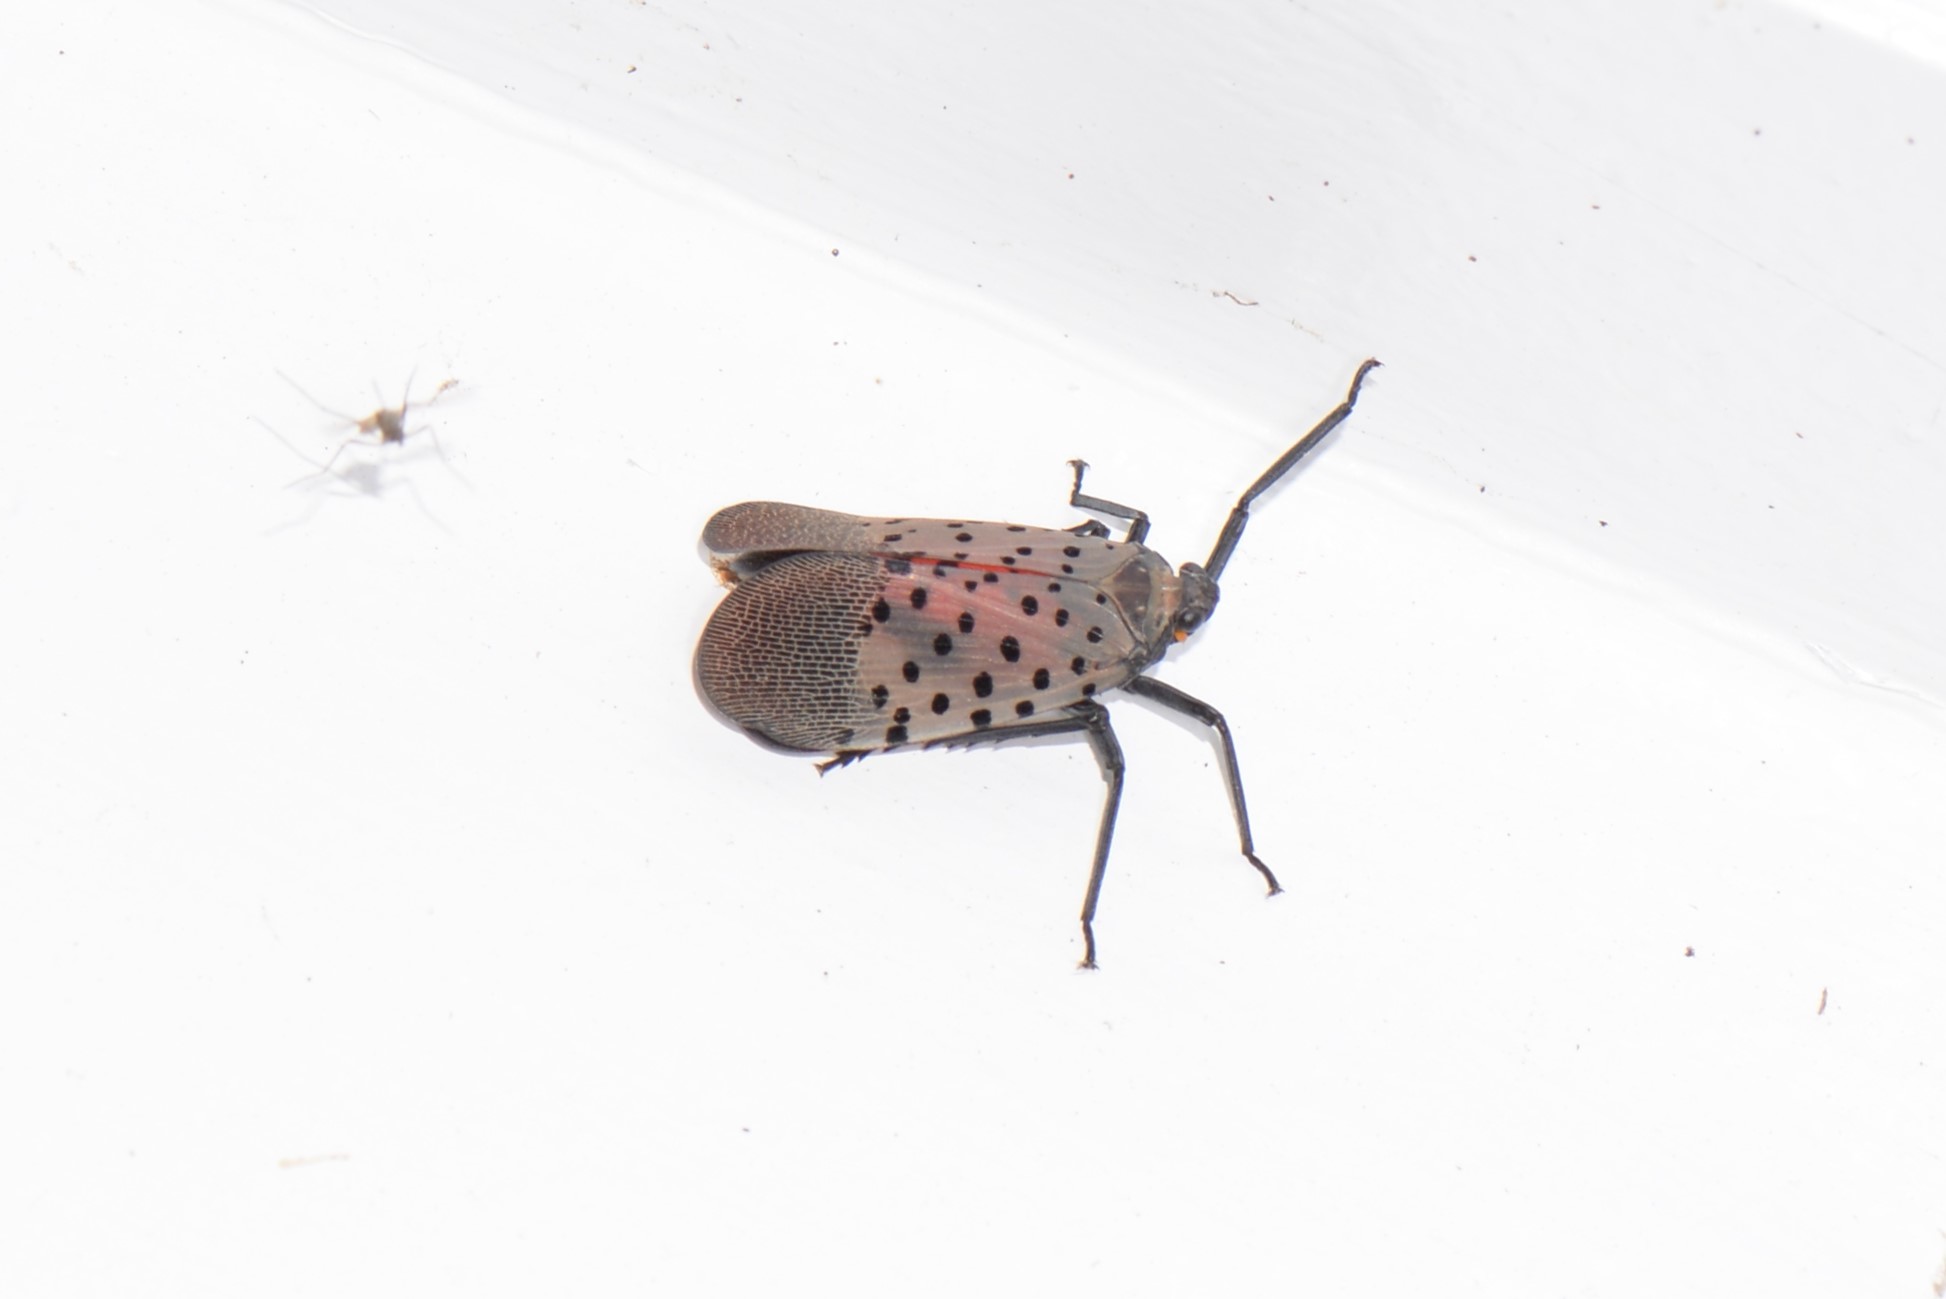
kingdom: Animalia
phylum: Arthropoda
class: Insecta
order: Hemiptera
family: Fulgoridae
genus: Lycorma
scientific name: Lycorma delicatula
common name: Spotted lanternfly
